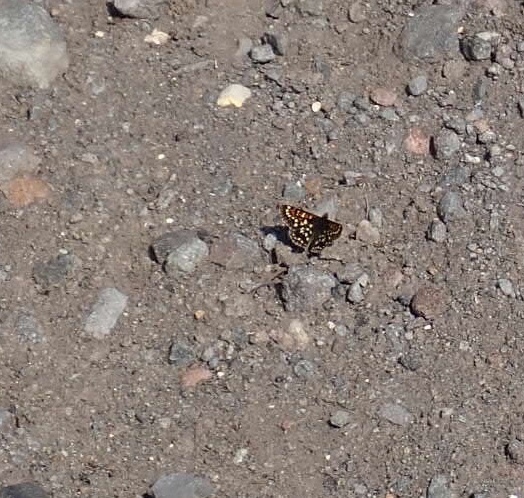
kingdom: Animalia
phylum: Arthropoda
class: Insecta
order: Lepidoptera
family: Nymphalidae
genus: Occidryas
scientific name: Occidryas anicia
